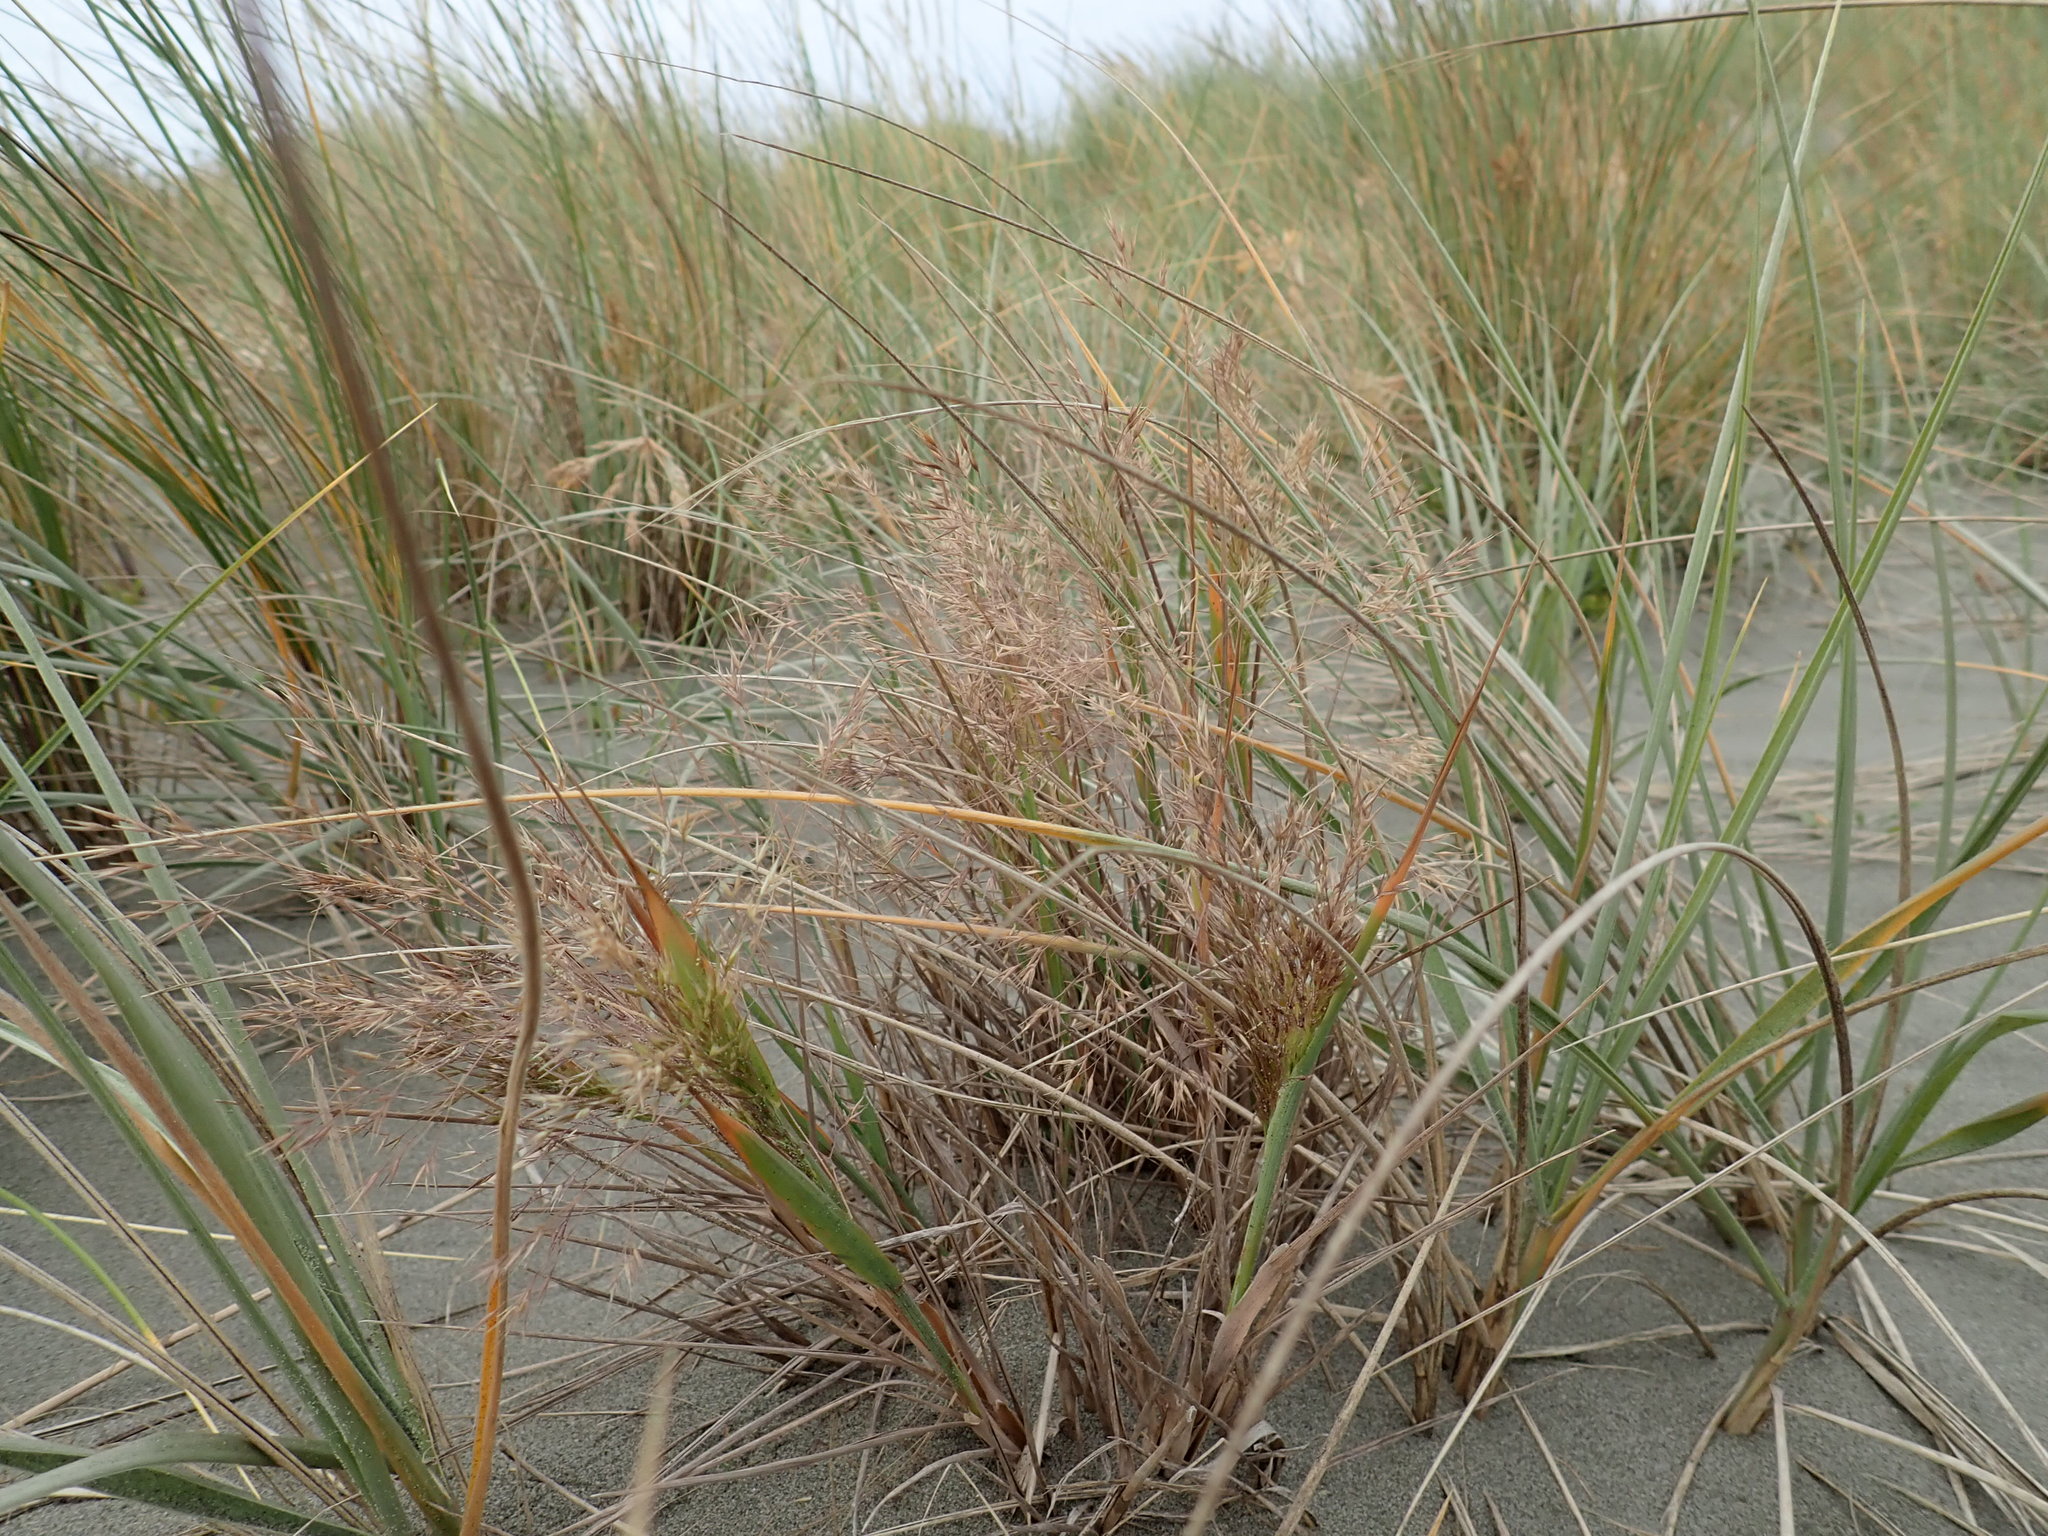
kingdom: Plantae
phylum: Tracheophyta
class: Liliopsida
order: Poales
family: Poaceae
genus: Lachnagrostis
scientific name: Lachnagrostis billardierei
